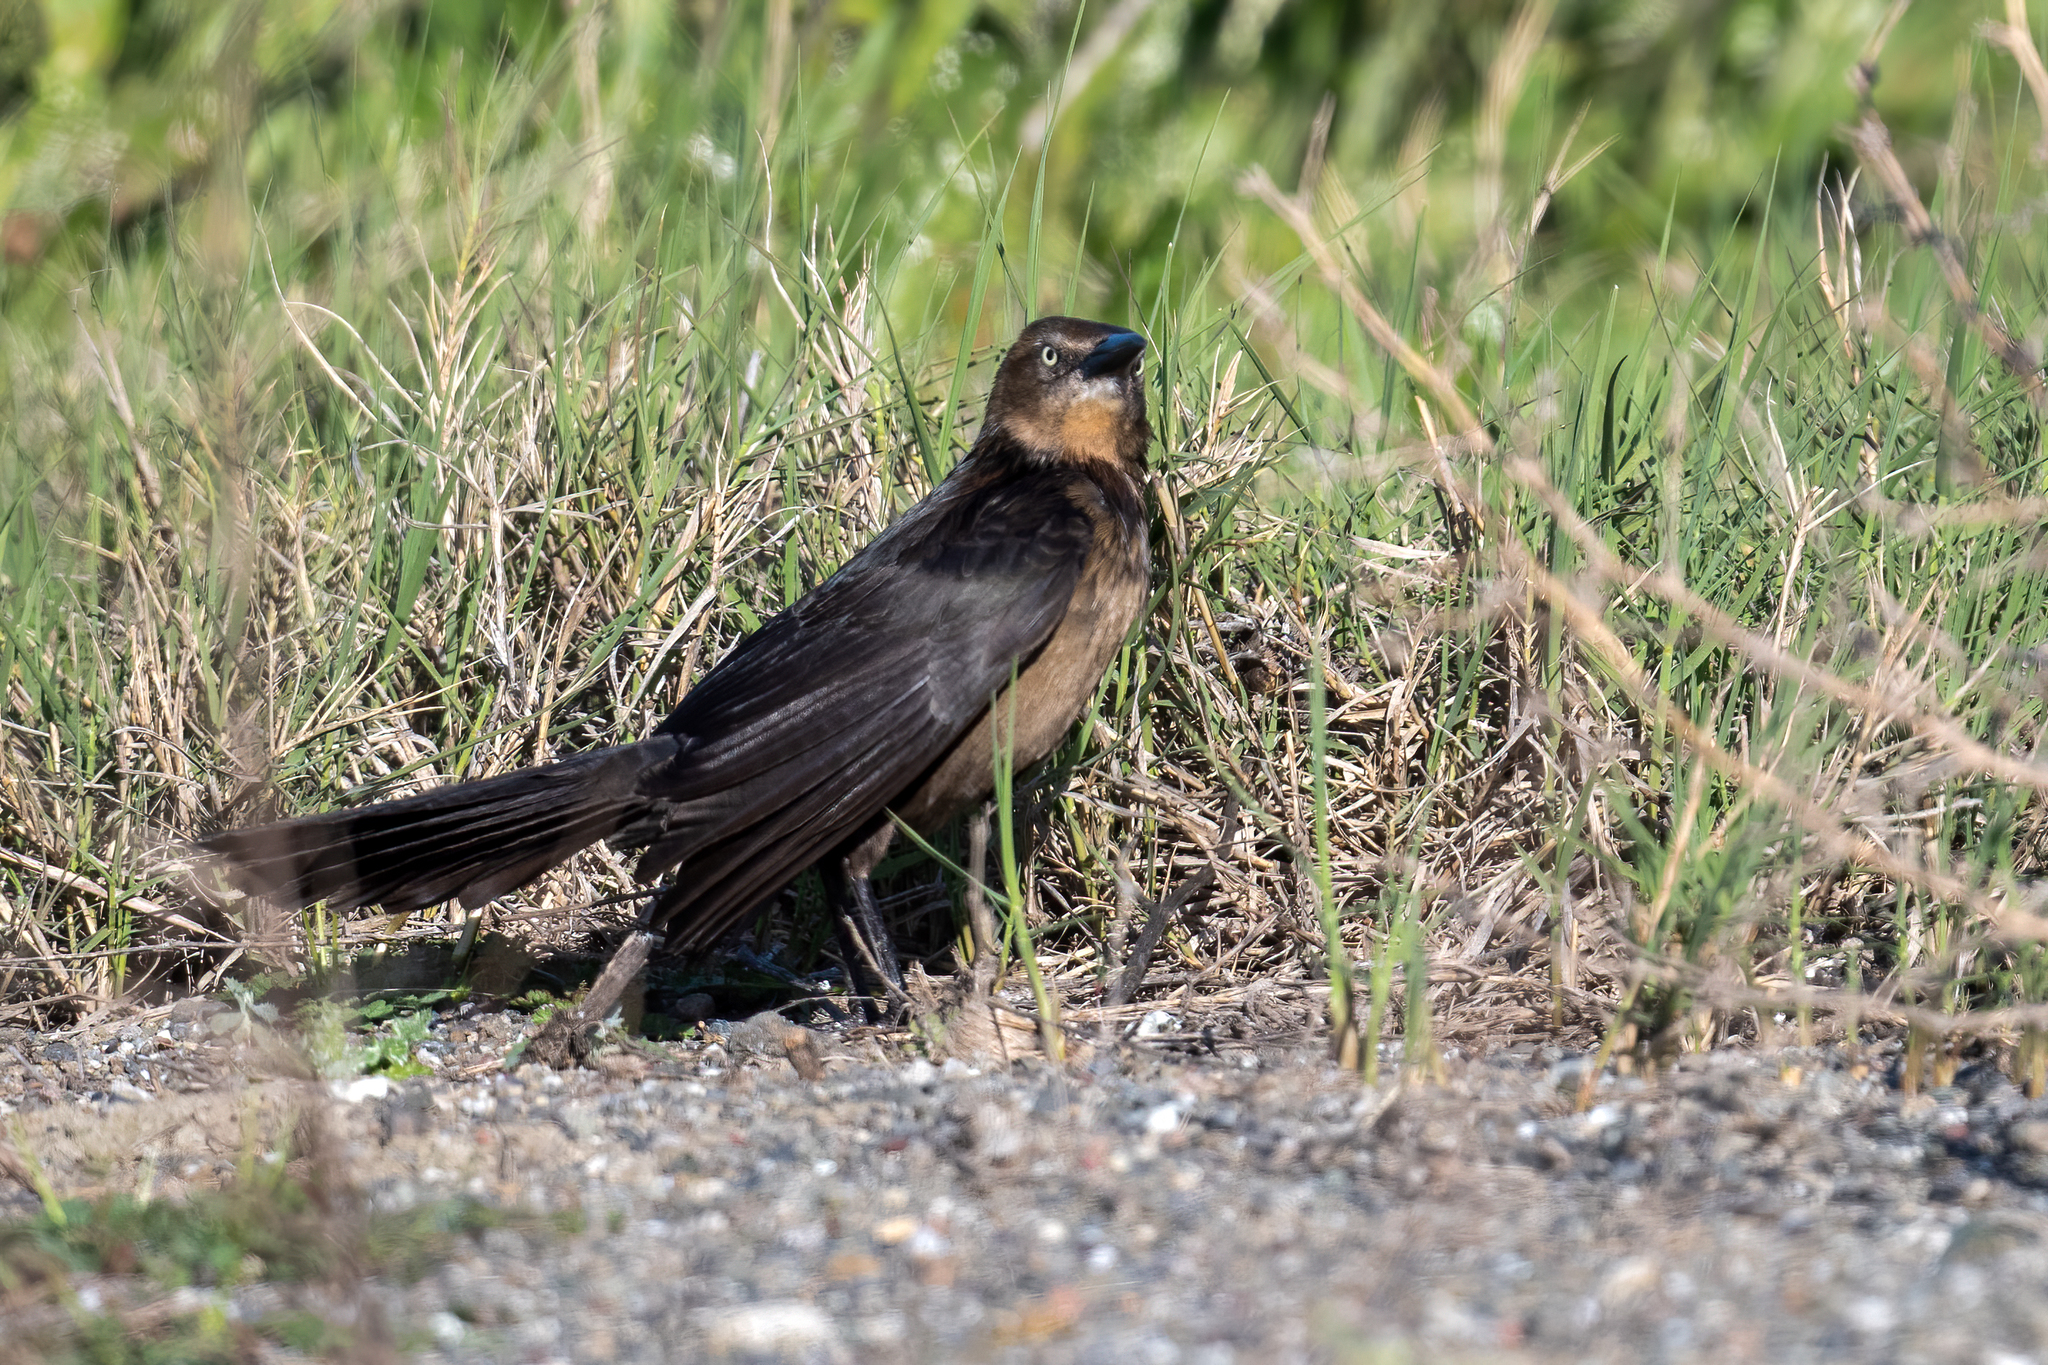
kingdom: Animalia
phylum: Chordata
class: Aves
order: Passeriformes
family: Icteridae
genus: Quiscalus
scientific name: Quiscalus mexicanus
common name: Great-tailed grackle
